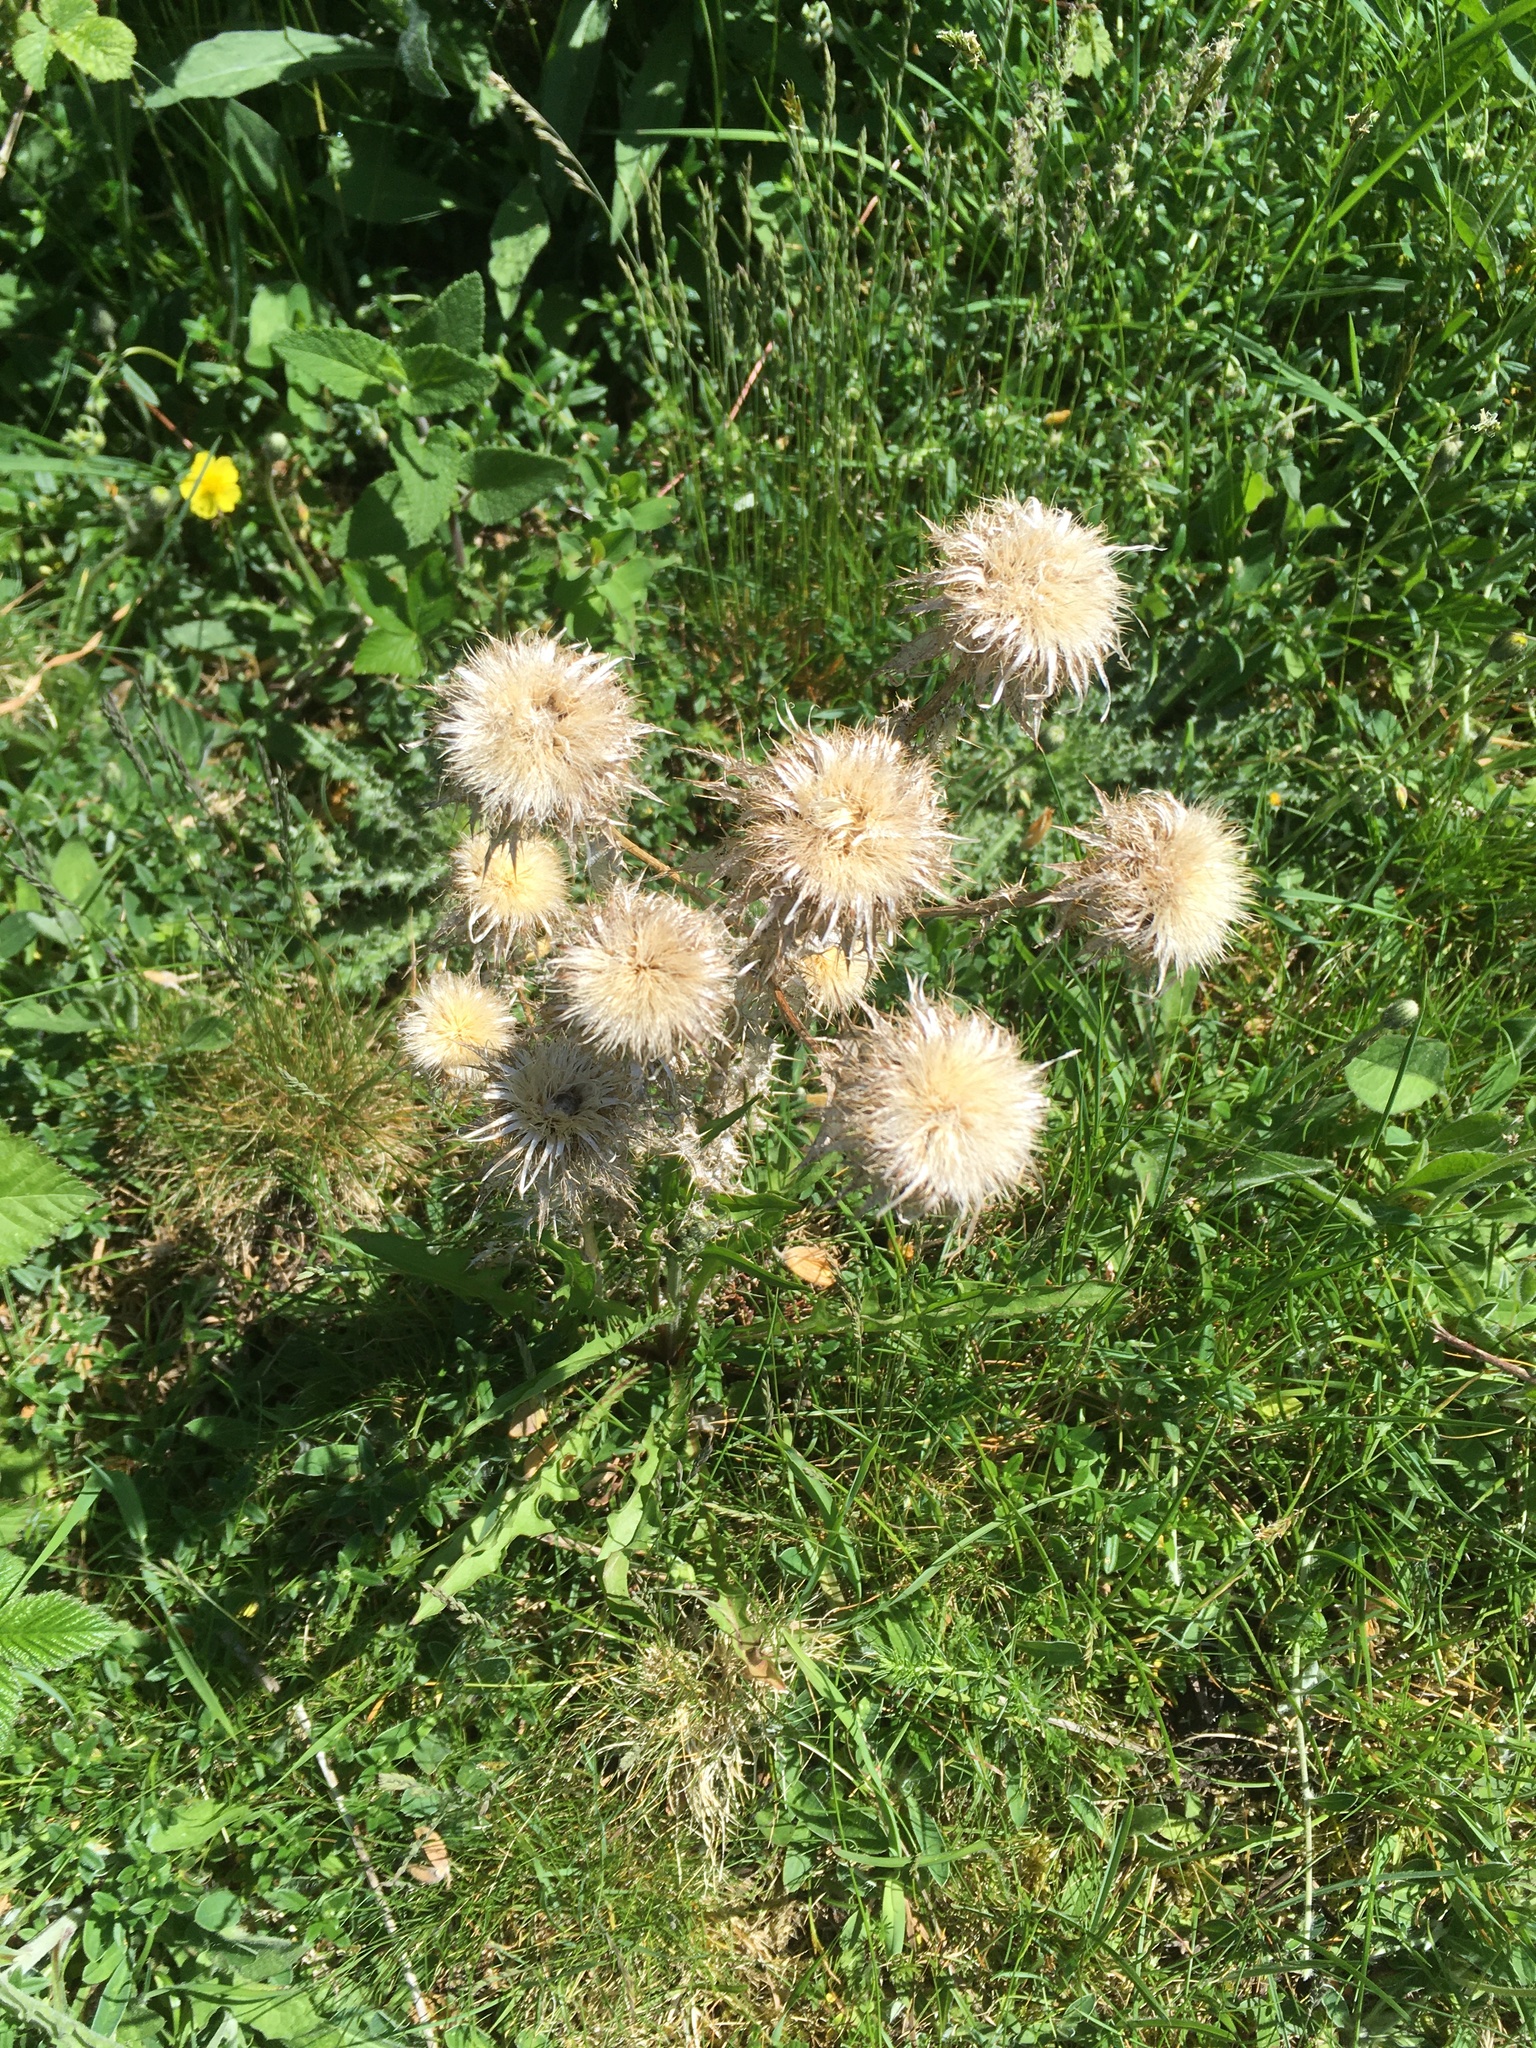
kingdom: Plantae
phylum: Tracheophyta
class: Magnoliopsida
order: Asterales
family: Asteraceae
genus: Carlina
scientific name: Carlina vulgaris
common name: Carline thistle
